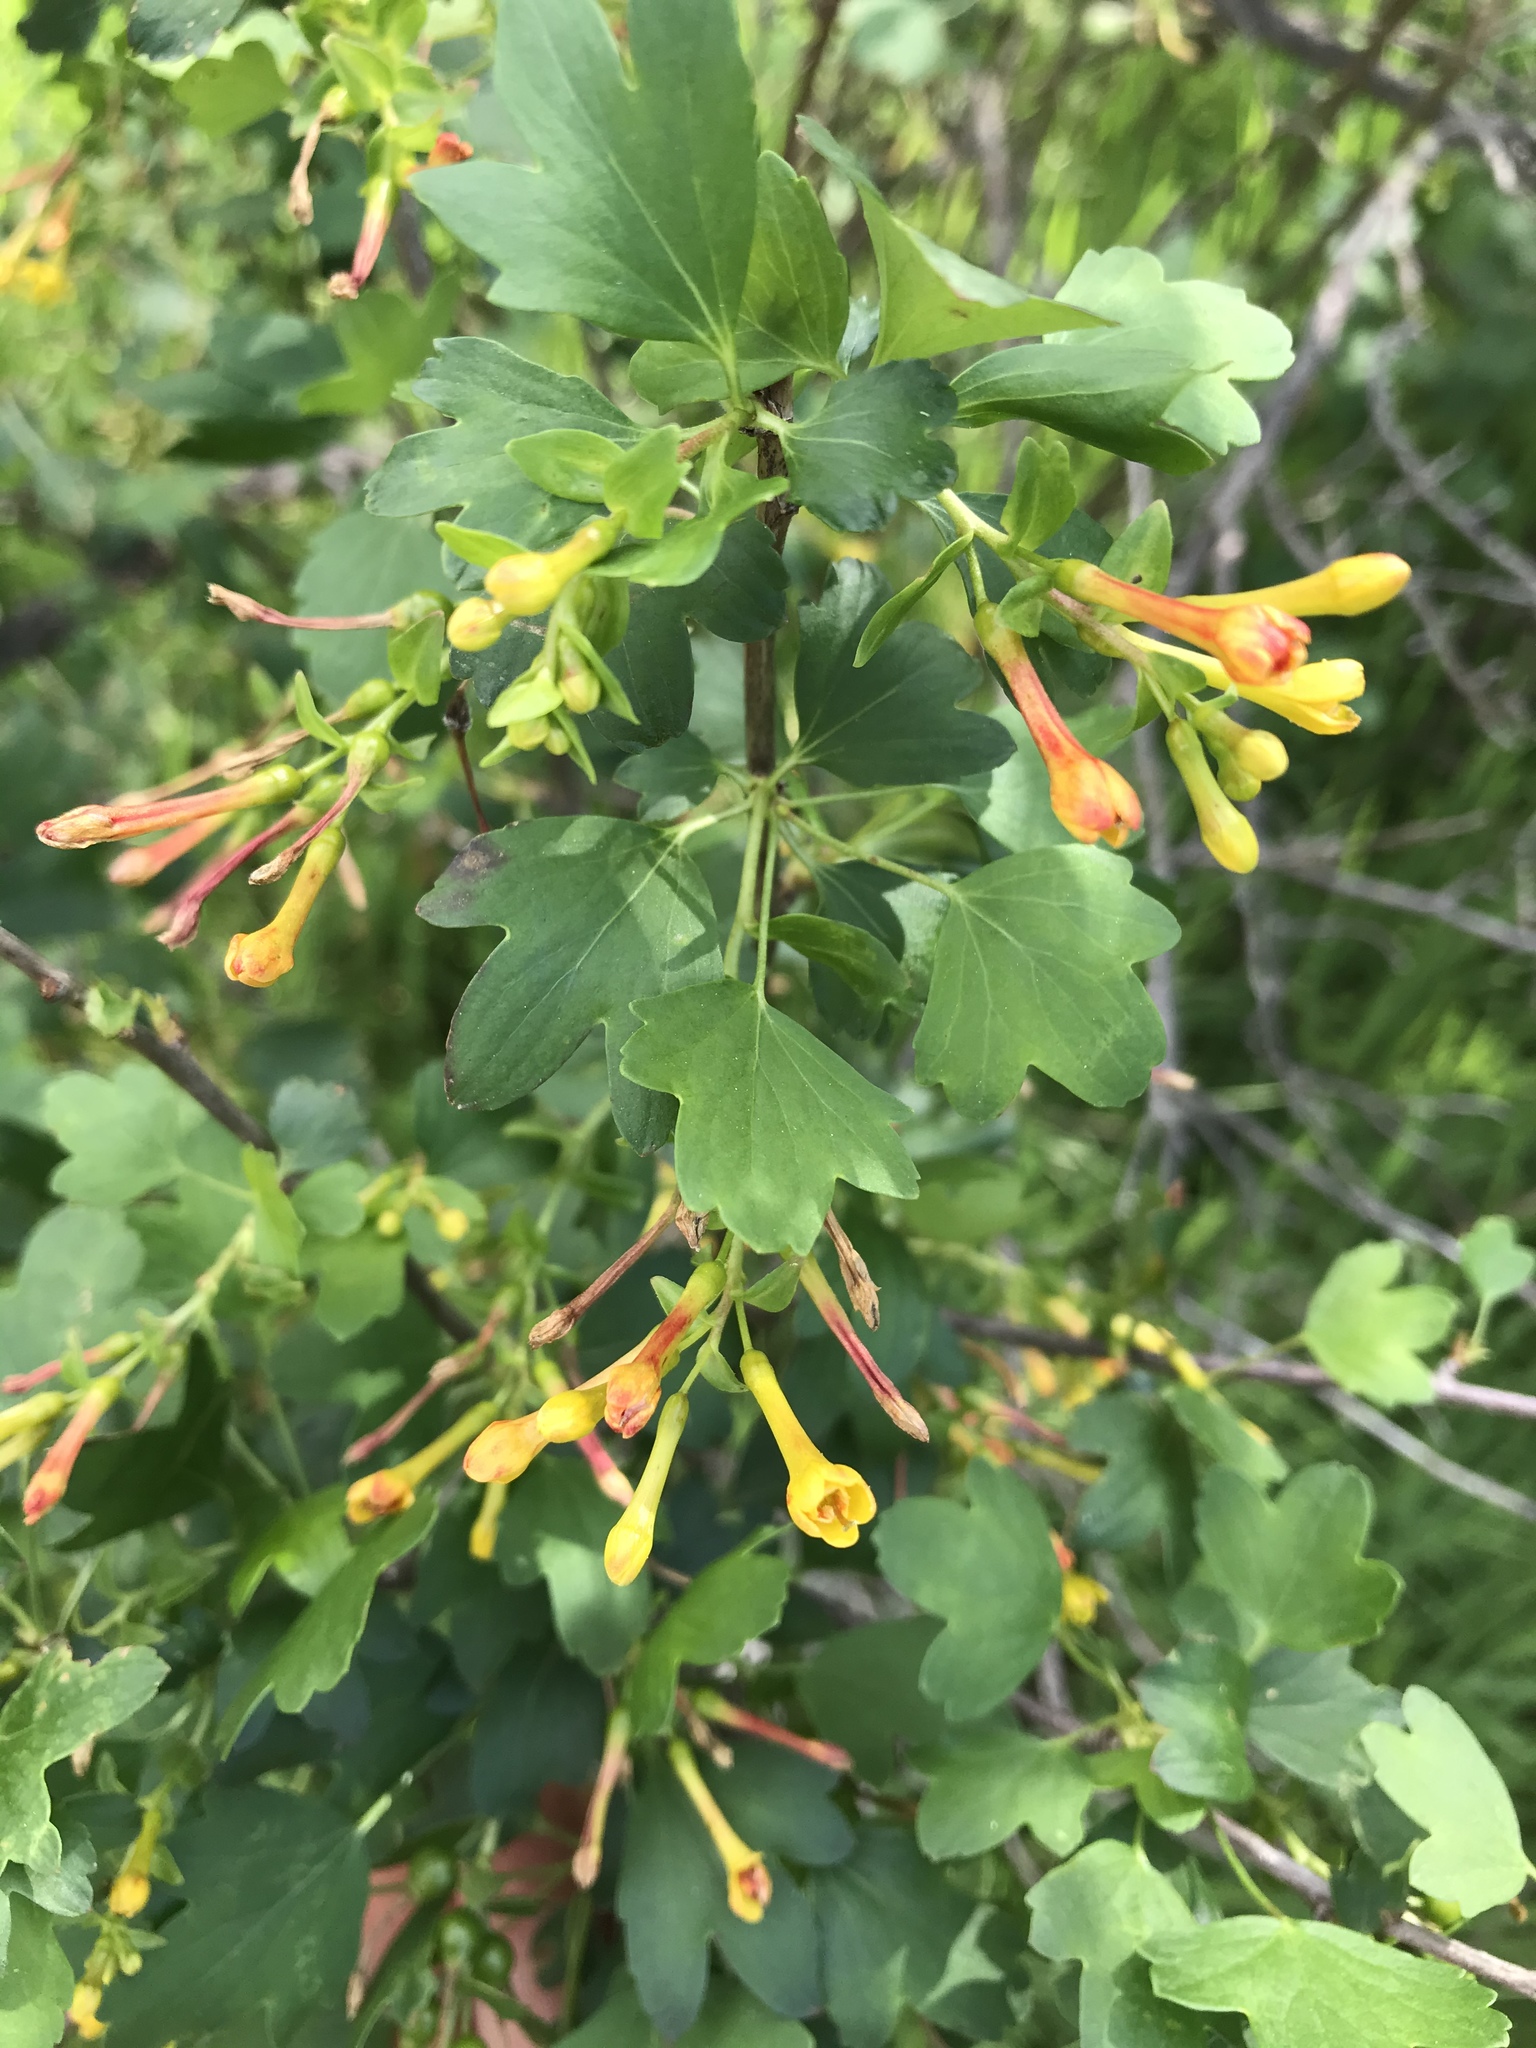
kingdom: Plantae
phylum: Tracheophyta
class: Magnoliopsida
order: Saxifragales
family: Grossulariaceae
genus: Ribes
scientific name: Ribes aureum
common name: Golden currant
